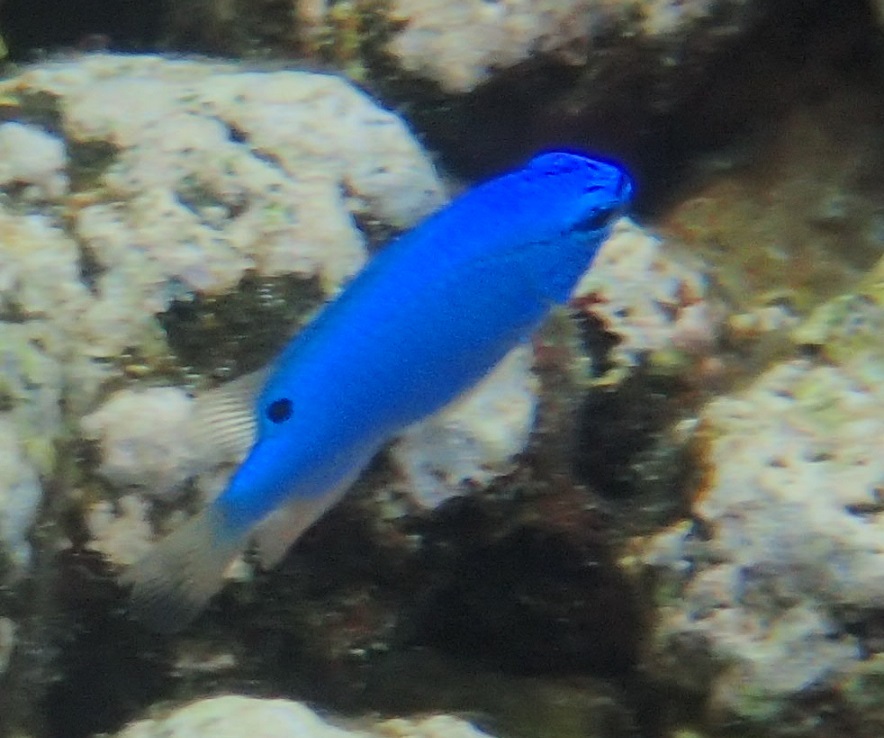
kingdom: Animalia
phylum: Chordata
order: Perciformes
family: Pomacentridae
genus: Chrysiptera
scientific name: Chrysiptera cyanea
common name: Blue devil
